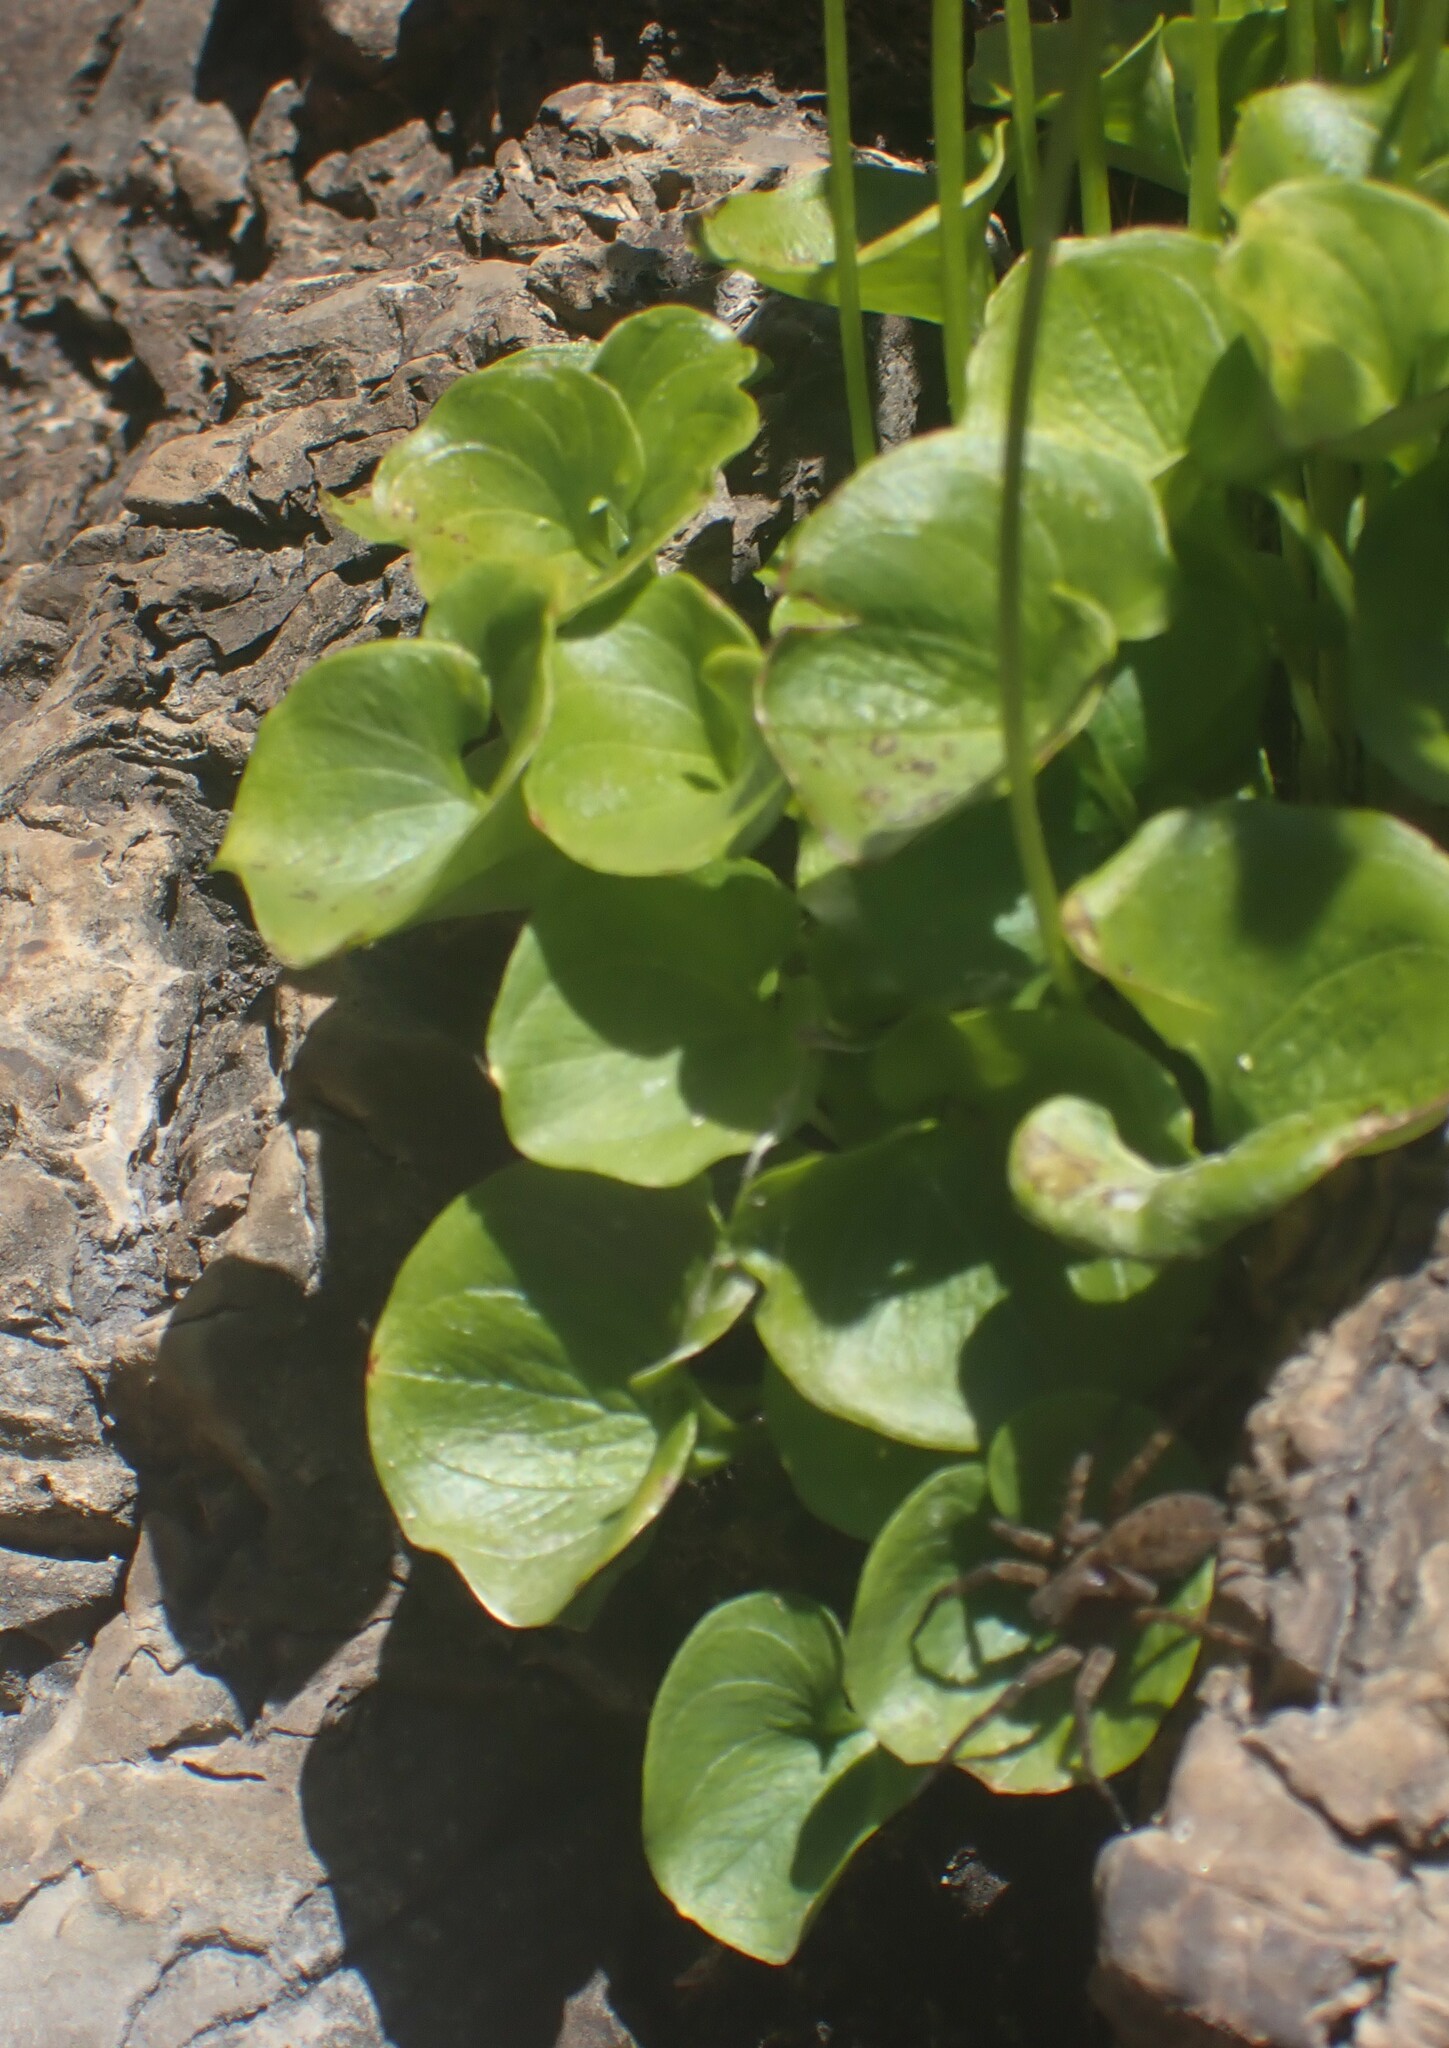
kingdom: Plantae
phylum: Tracheophyta
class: Magnoliopsida
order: Celastrales
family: Parnassiaceae
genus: Parnassia
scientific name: Parnassia fimbriata
